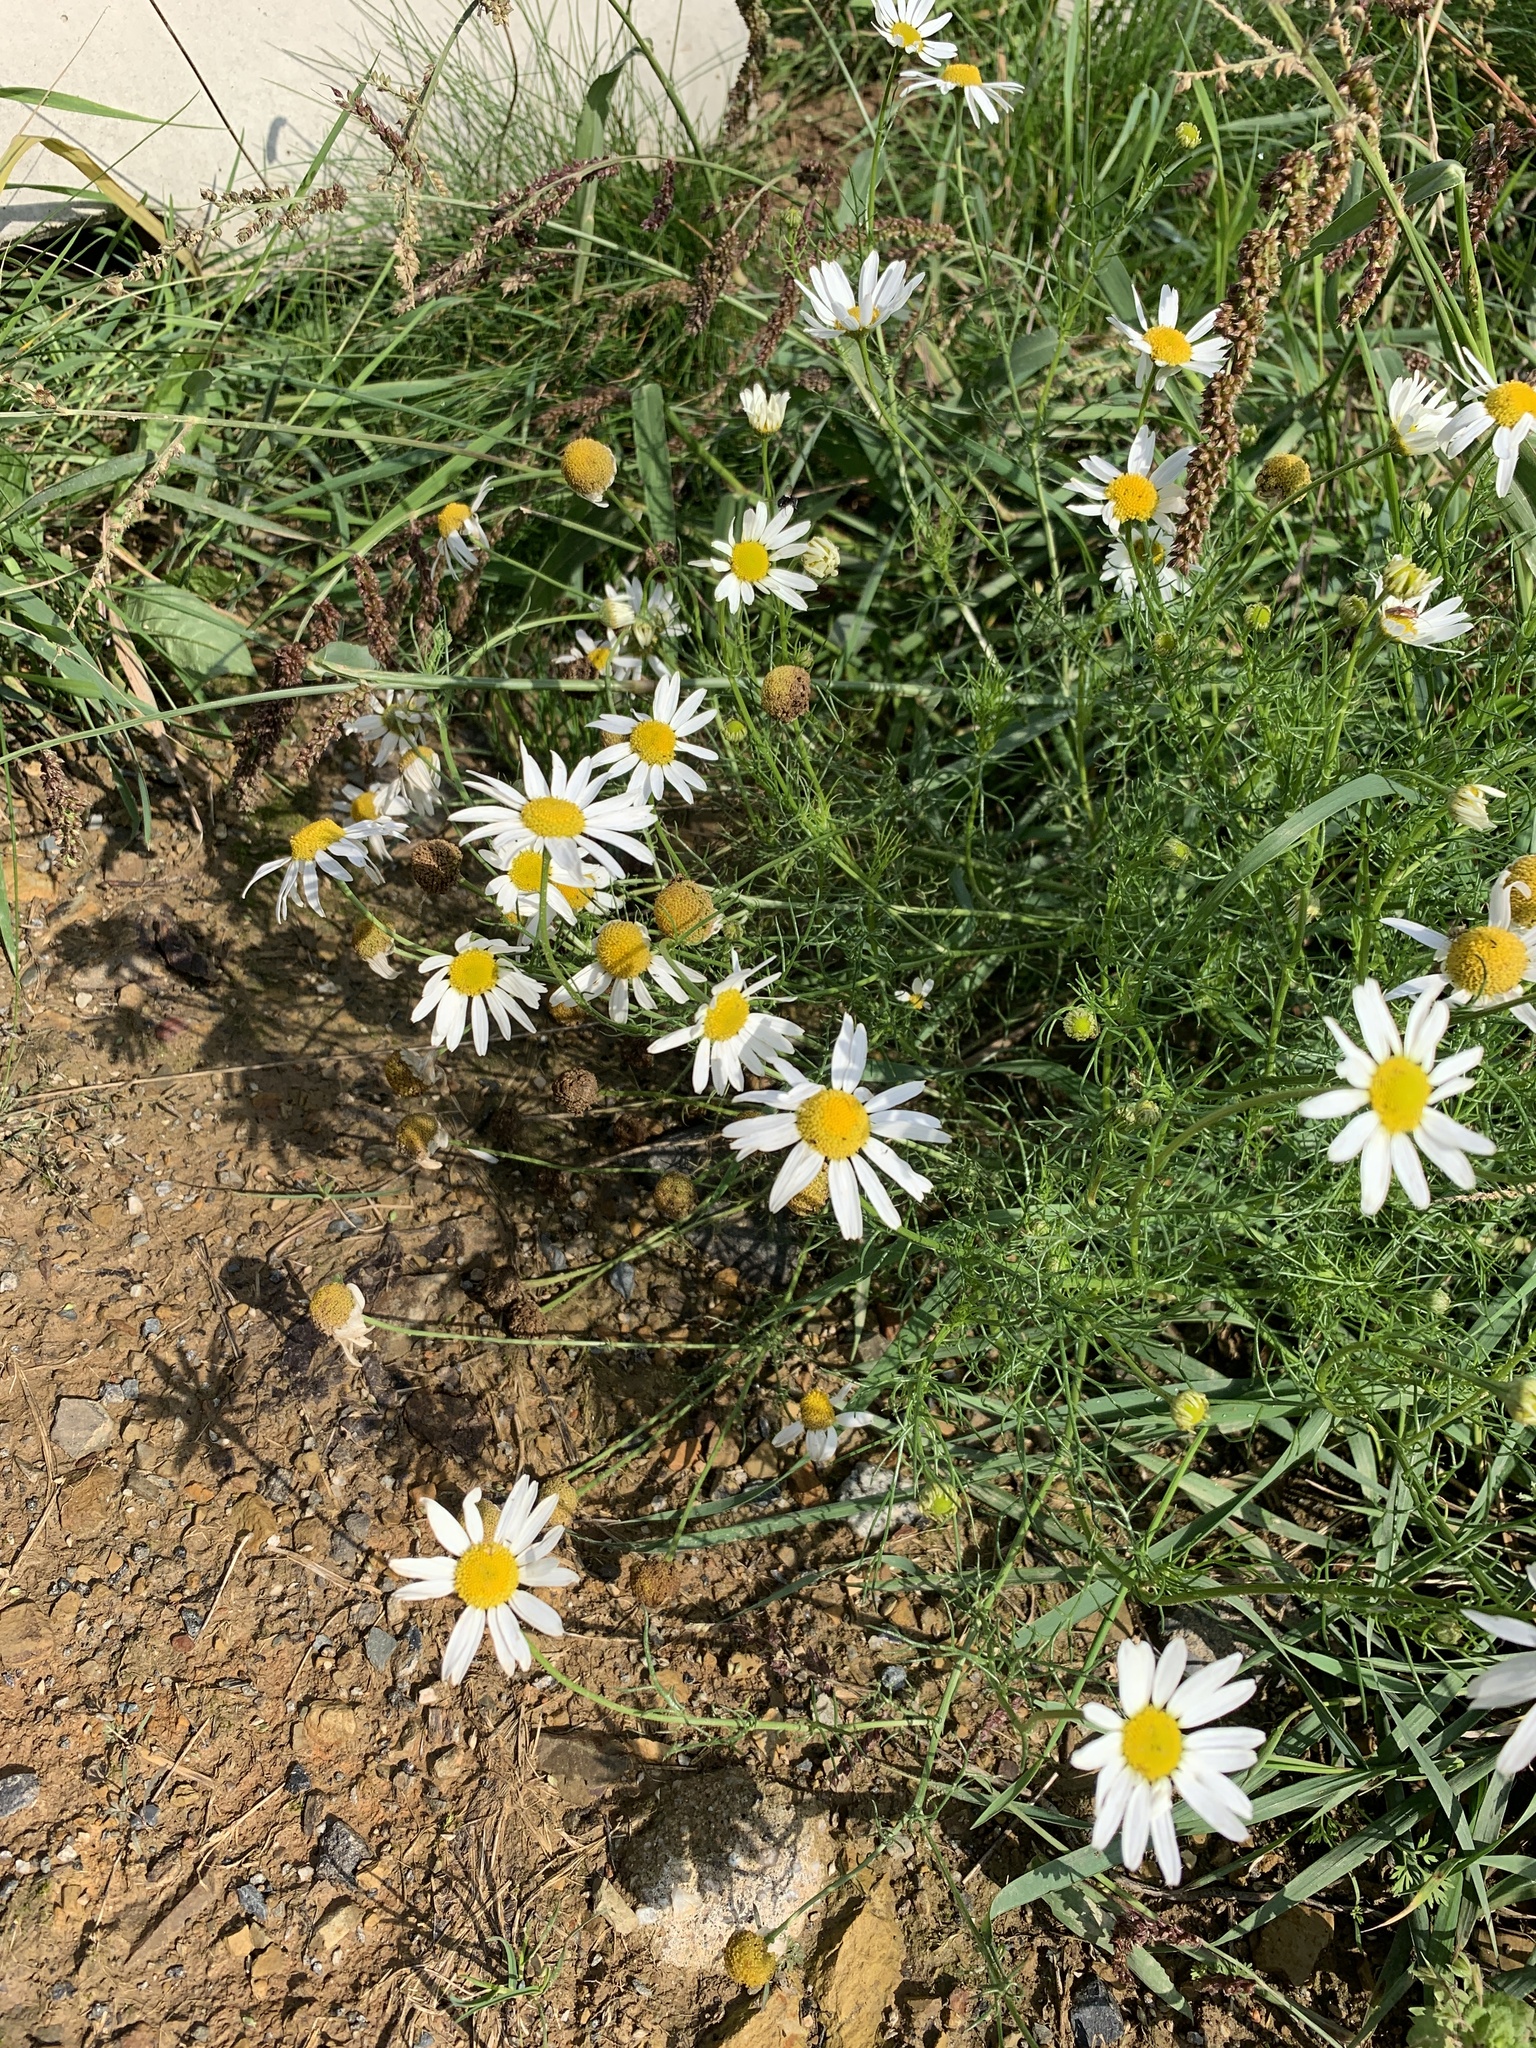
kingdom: Plantae
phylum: Tracheophyta
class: Magnoliopsida
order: Asterales
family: Asteraceae
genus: Tripleurospermum
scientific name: Tripleurospermum inodorum
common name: Scentless mayweed
